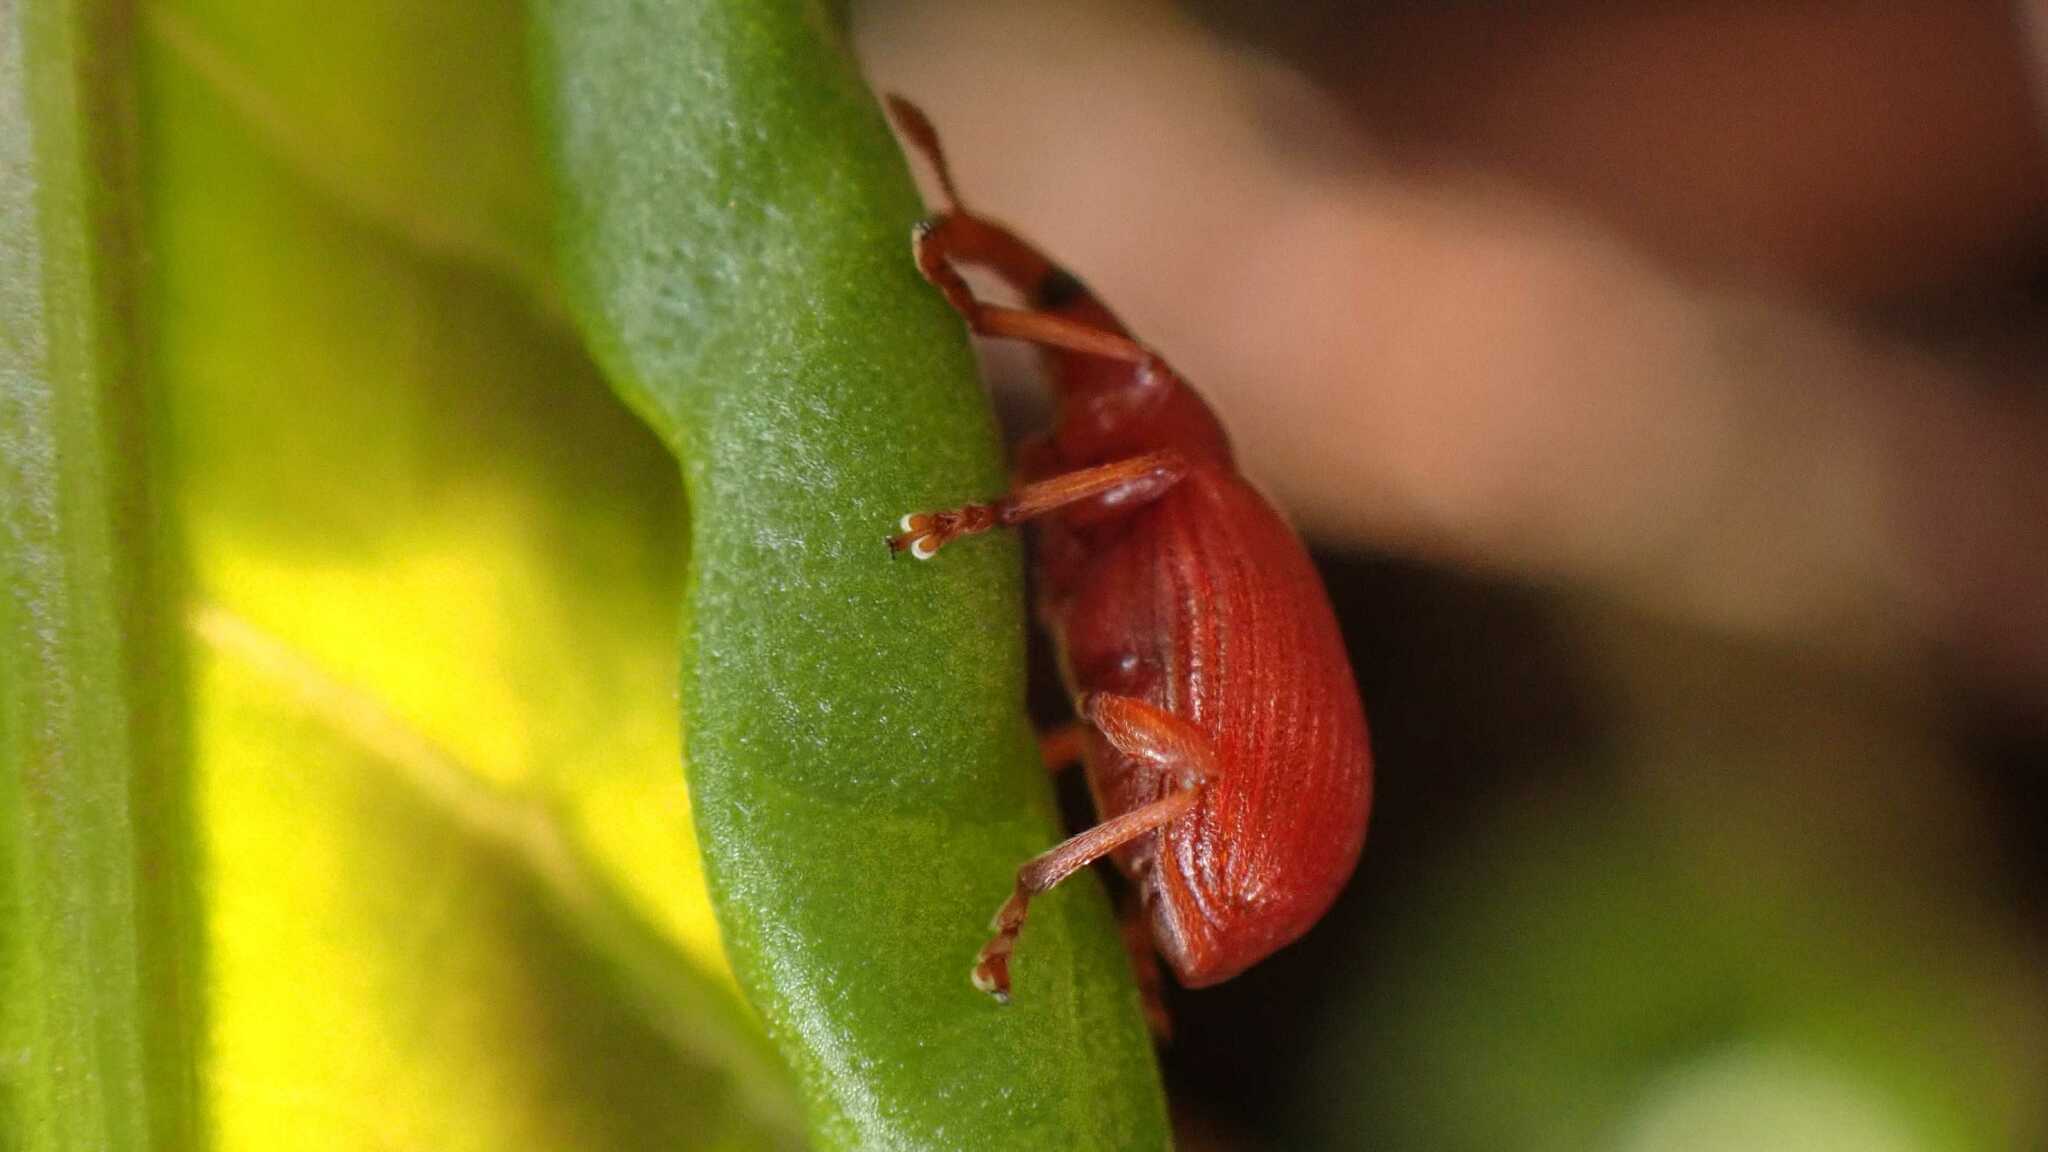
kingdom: Animalia
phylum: Arthropoda
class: Insecta
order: Coleoptera
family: Apionidae
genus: Apion
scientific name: Apion frumentarium
